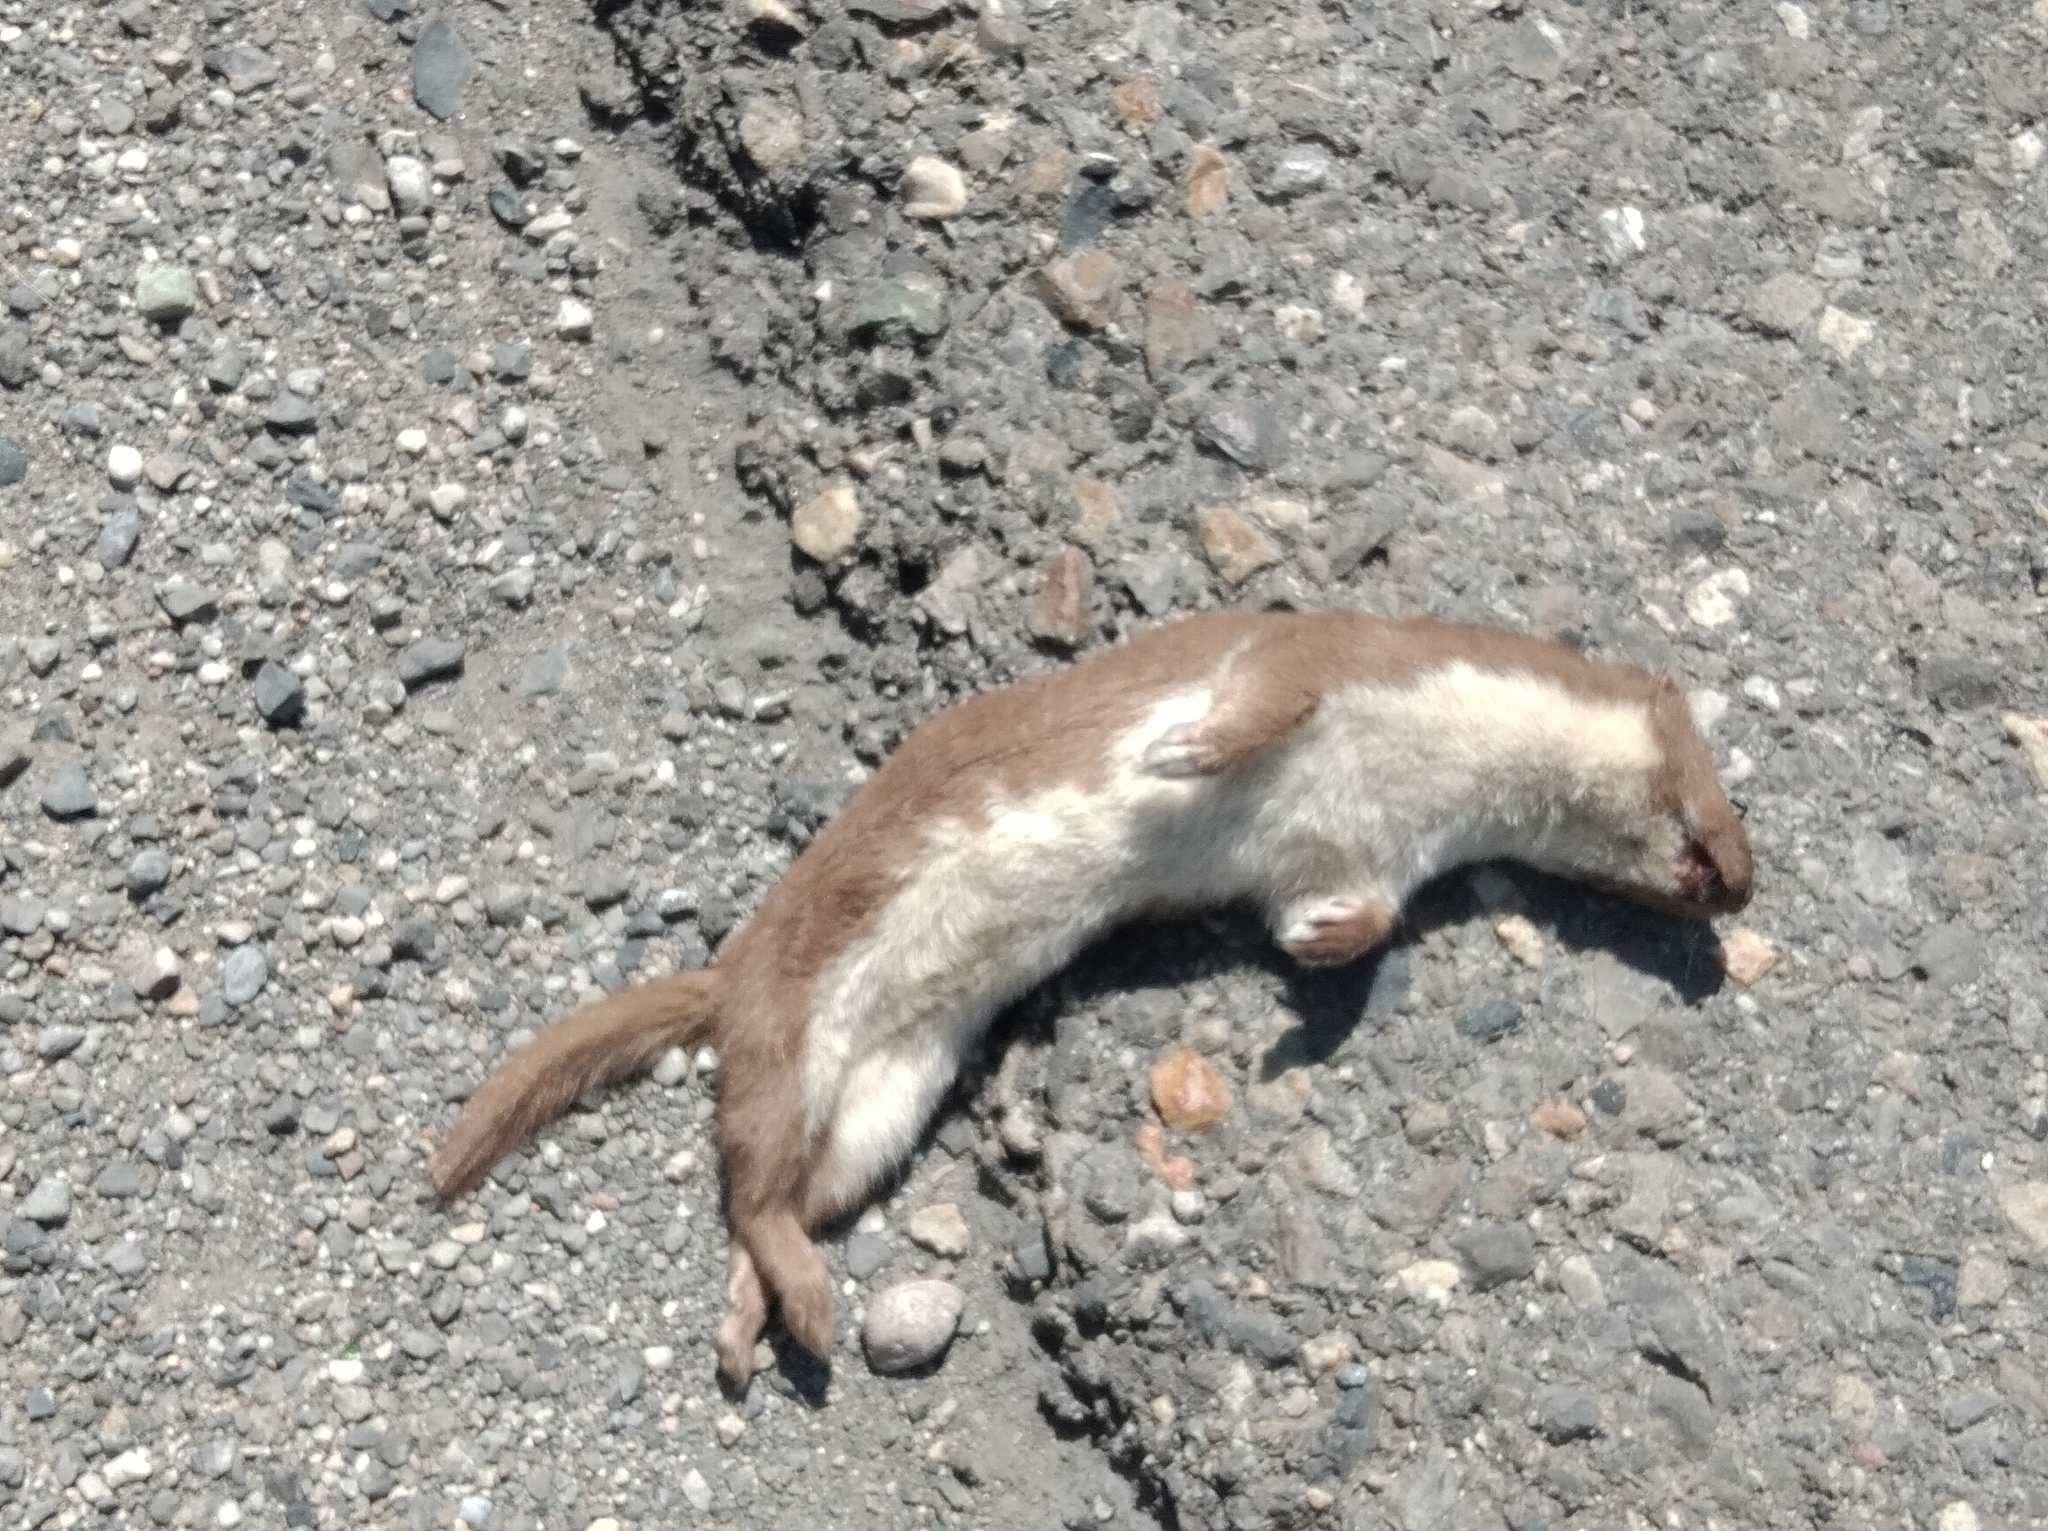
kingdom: Animalia
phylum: Chordata
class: Mammalia
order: Carnivora
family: Mustelidae
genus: Mustela
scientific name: Mustela nivalis
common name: Least weasel
